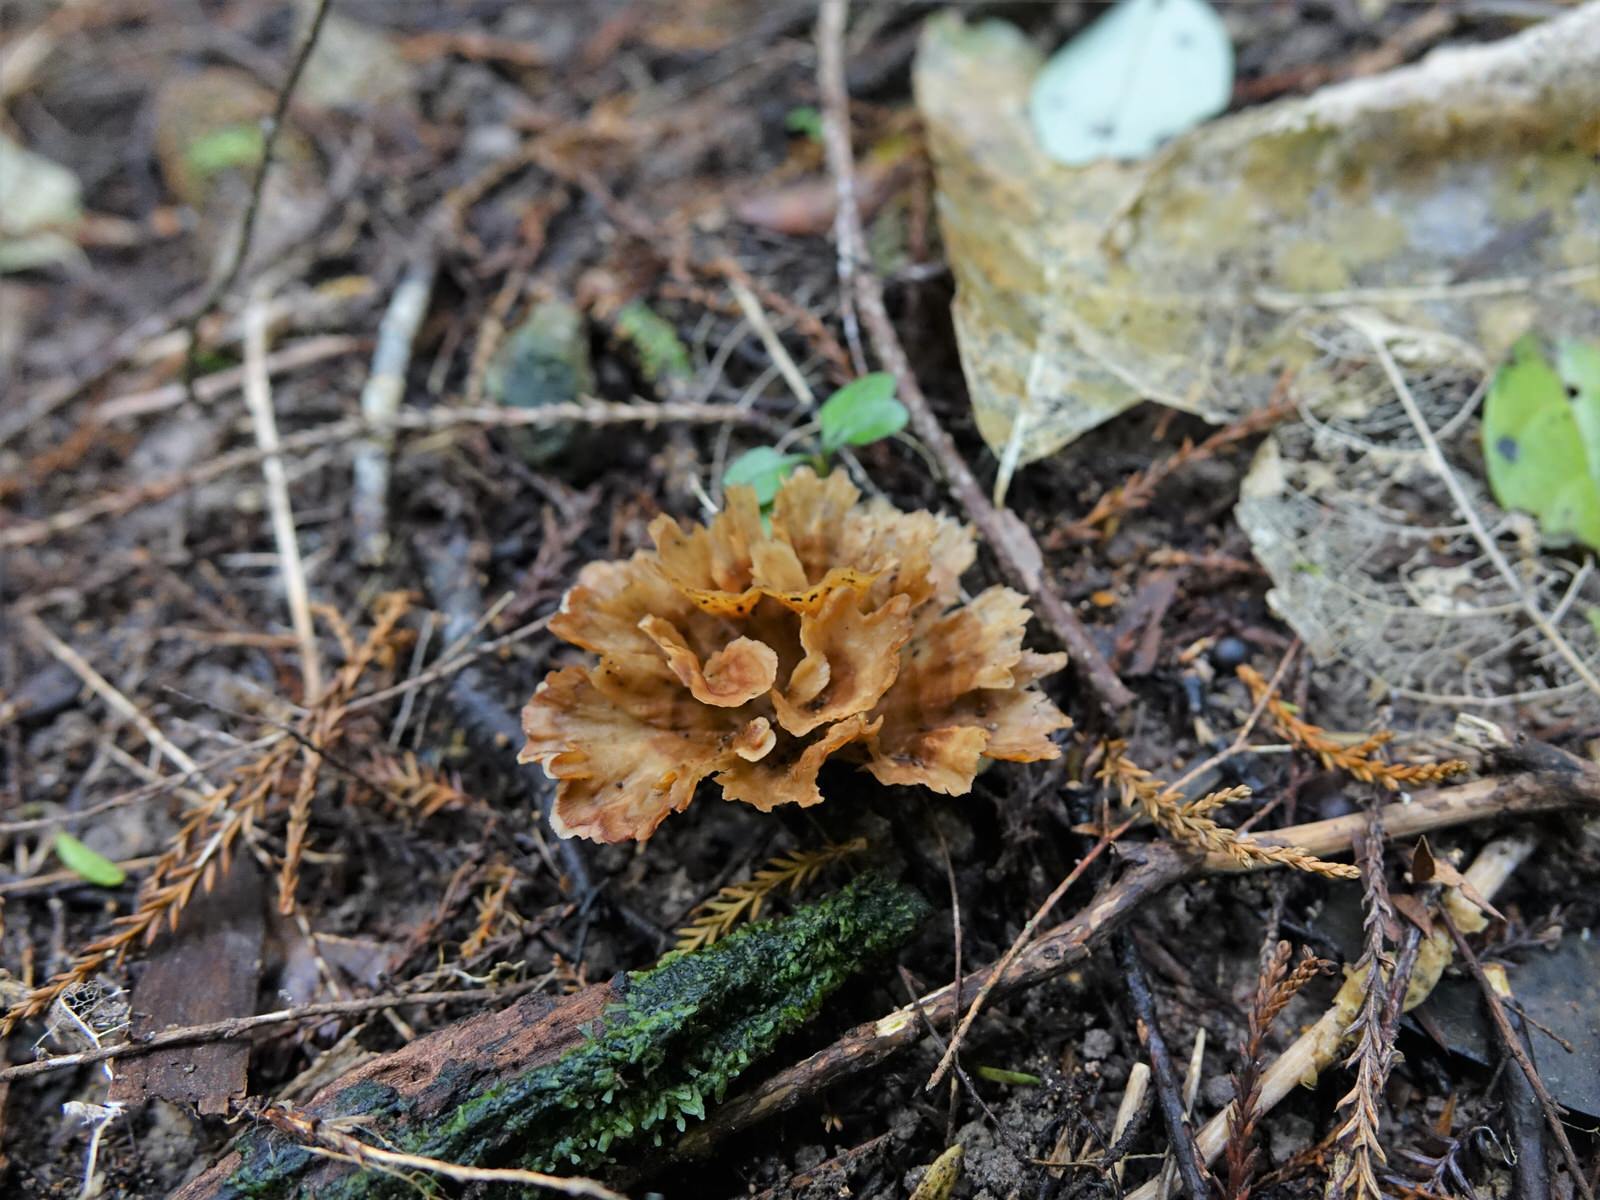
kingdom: Fungi
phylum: Basidiomycota
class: Agaricomycetes
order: Polyporales
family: Podoscyphaceae
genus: Podoscypha
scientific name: Podoscypha petalodes
